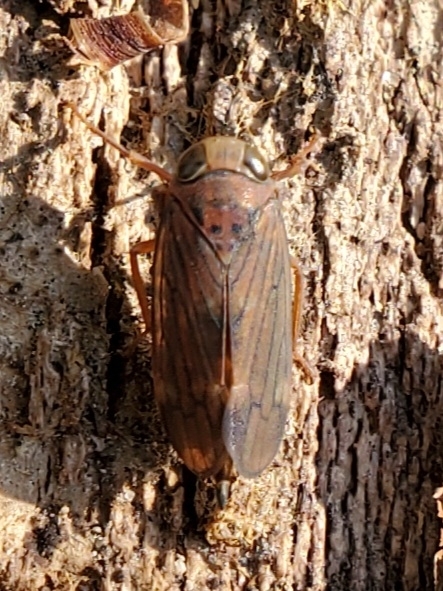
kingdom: Animalia
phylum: Arthropoda
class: Insecta
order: Hemiptera
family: Cicadellidae
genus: Jikradia
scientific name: Jikradia olitoria
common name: Coppery leafhopper
